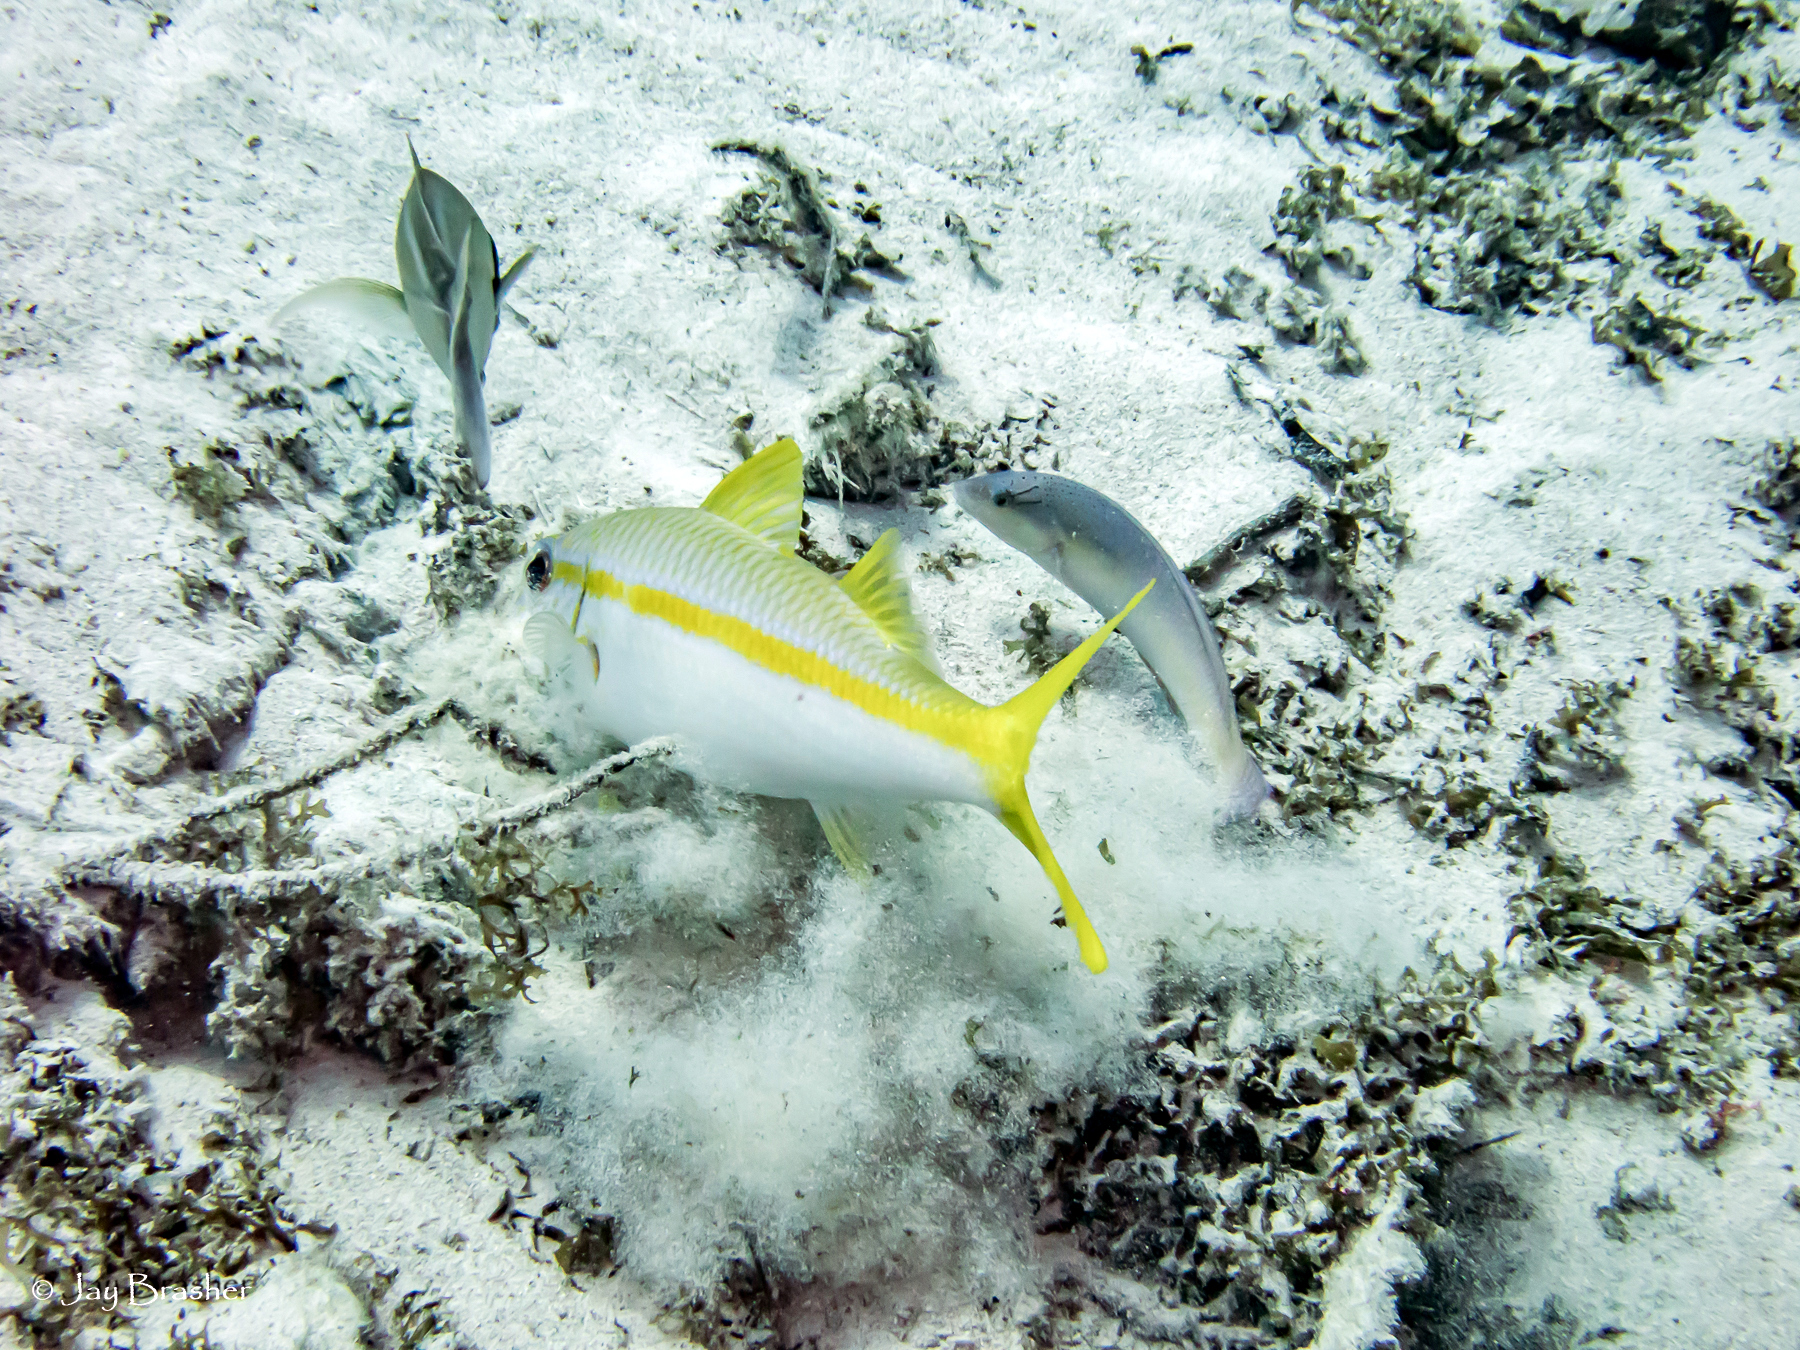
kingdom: Animalia
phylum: Chordata
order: Perciformes
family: Labridae
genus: Halichoeres
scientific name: Halichoeres garnoti
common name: Yellowhead wrasse
